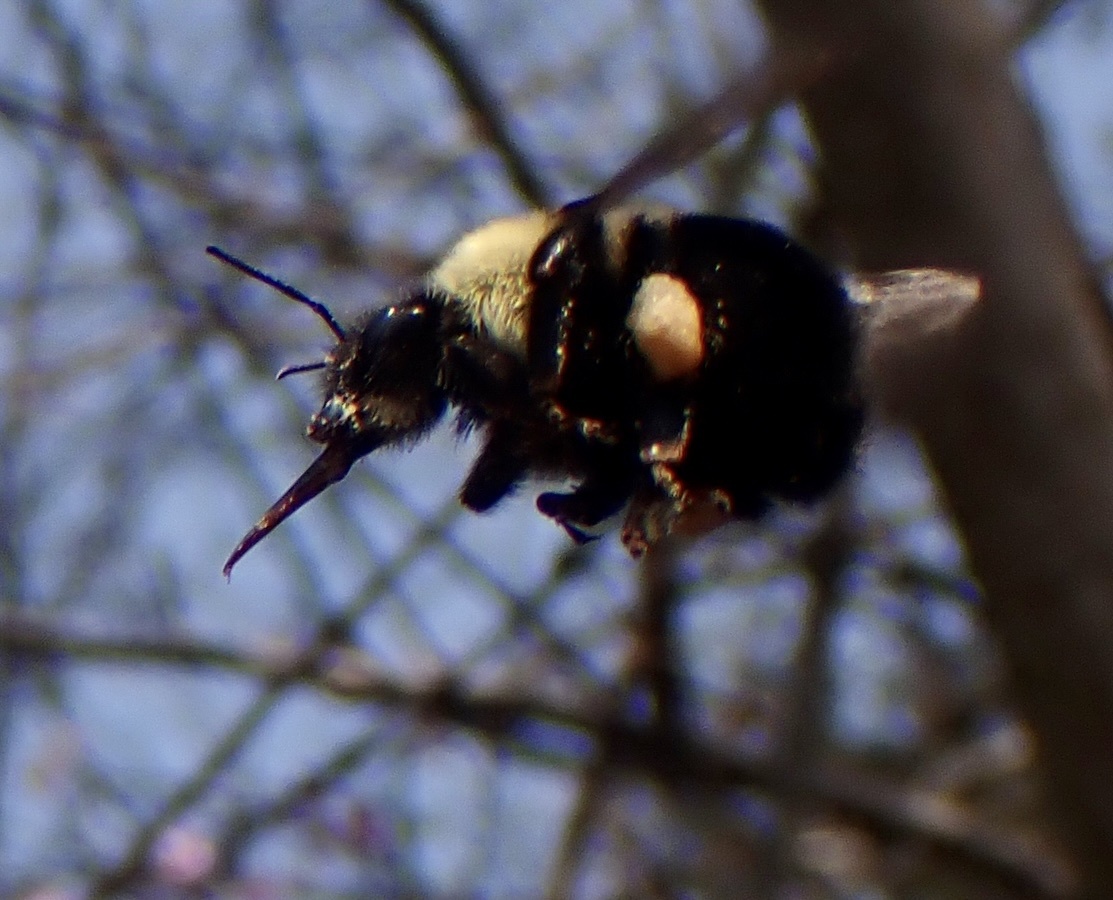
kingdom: Animalia
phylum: Arthropoda
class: Insecta
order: Hymenoptera
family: Apidae
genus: Bombus
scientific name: Bombus bimaculatus
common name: Two-spotted bumble bee
